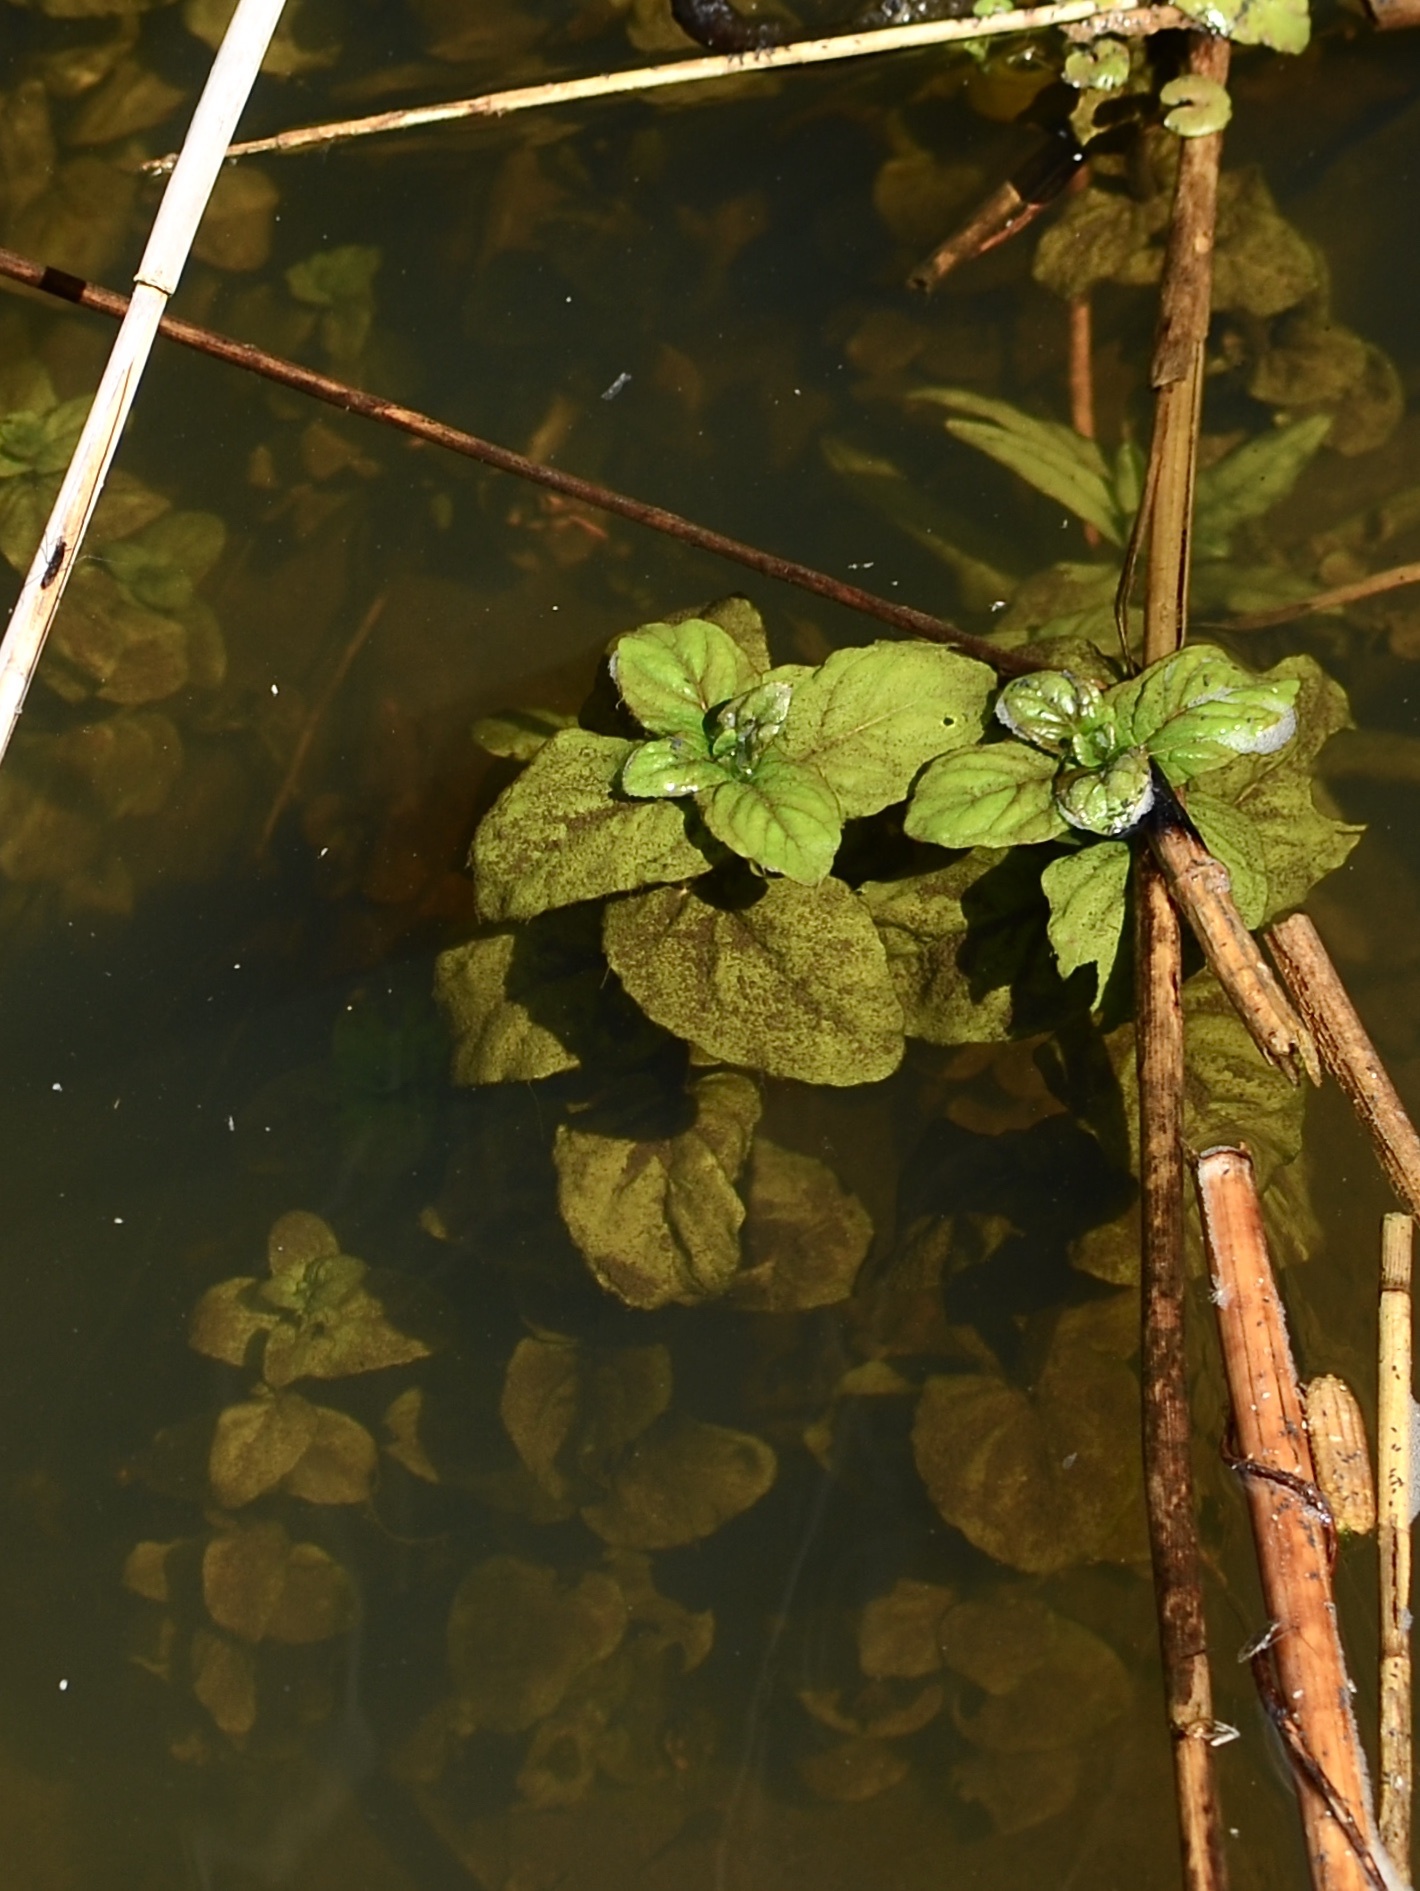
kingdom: Plantae
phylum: Tracheophyta
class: Magnoliopsida
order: Lamiales
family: Lamiaceae
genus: Mentha
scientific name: Mentha aquatica
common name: Water mint
